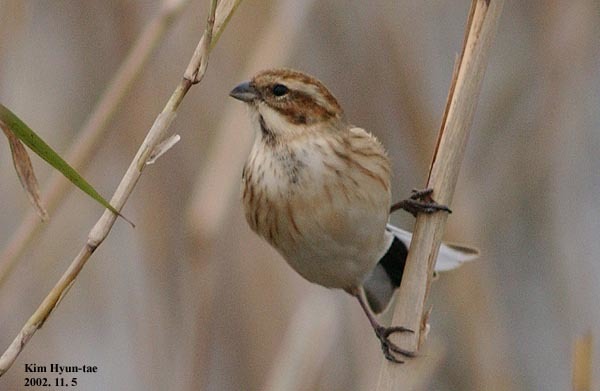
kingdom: Animalia
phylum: Chordata
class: Aves
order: Passeriformes
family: Emberizidae
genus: Emberiza
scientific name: Emberiza schoeniclus
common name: Reed bunting
